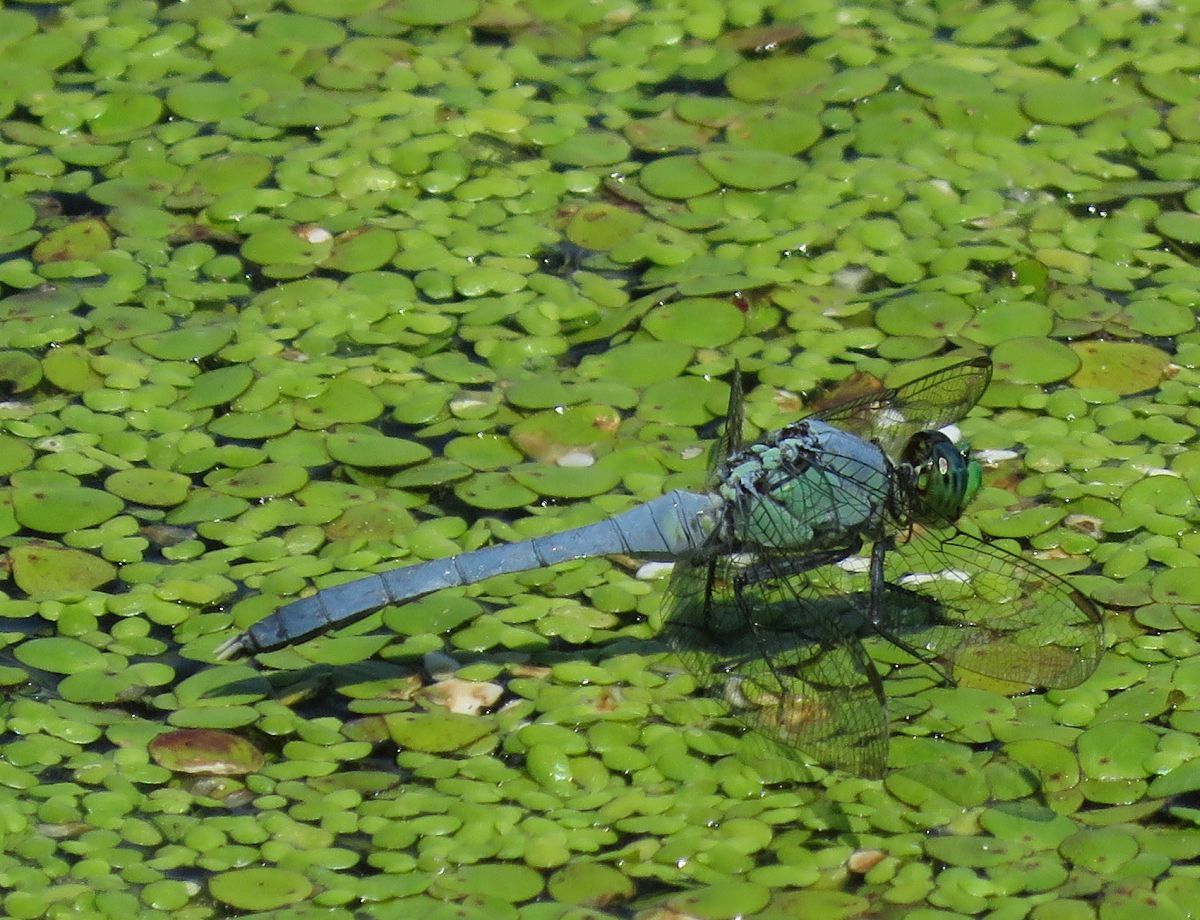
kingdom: Animalia
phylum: Arthropoda
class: Insecta
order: Odonata
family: Libellulidae
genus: Erythemis
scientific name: Erythemis simplicicollis
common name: Eastern pondhawk
